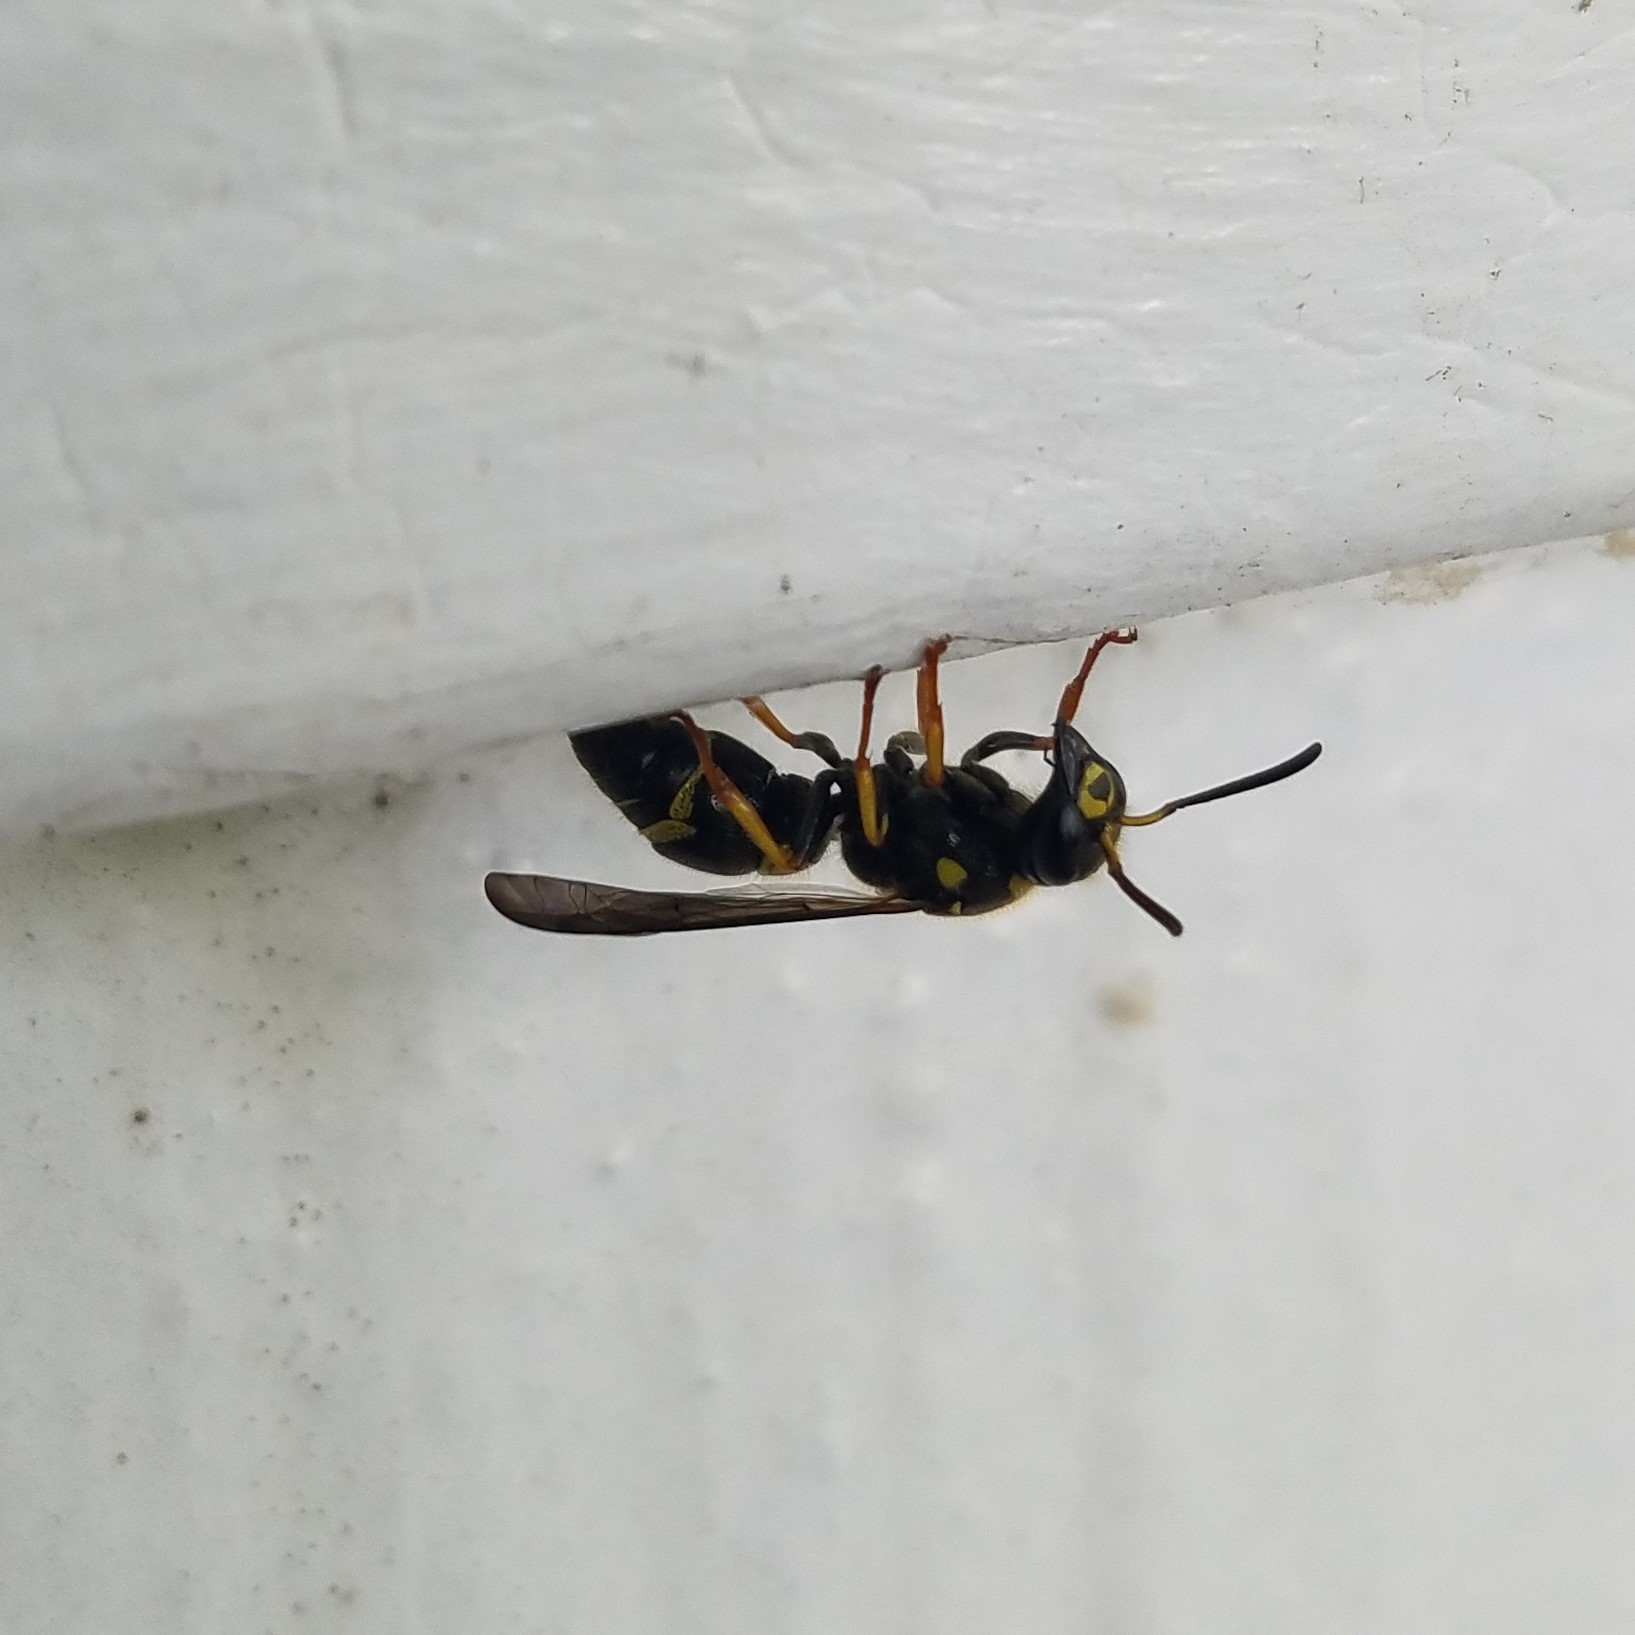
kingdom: Animalia
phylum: Arthropoda
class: Insecta
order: Hymenoptera
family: Vespidae
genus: Ancistrocerus
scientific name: Ancistrocerus campestris
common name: Smiling mason wasp
